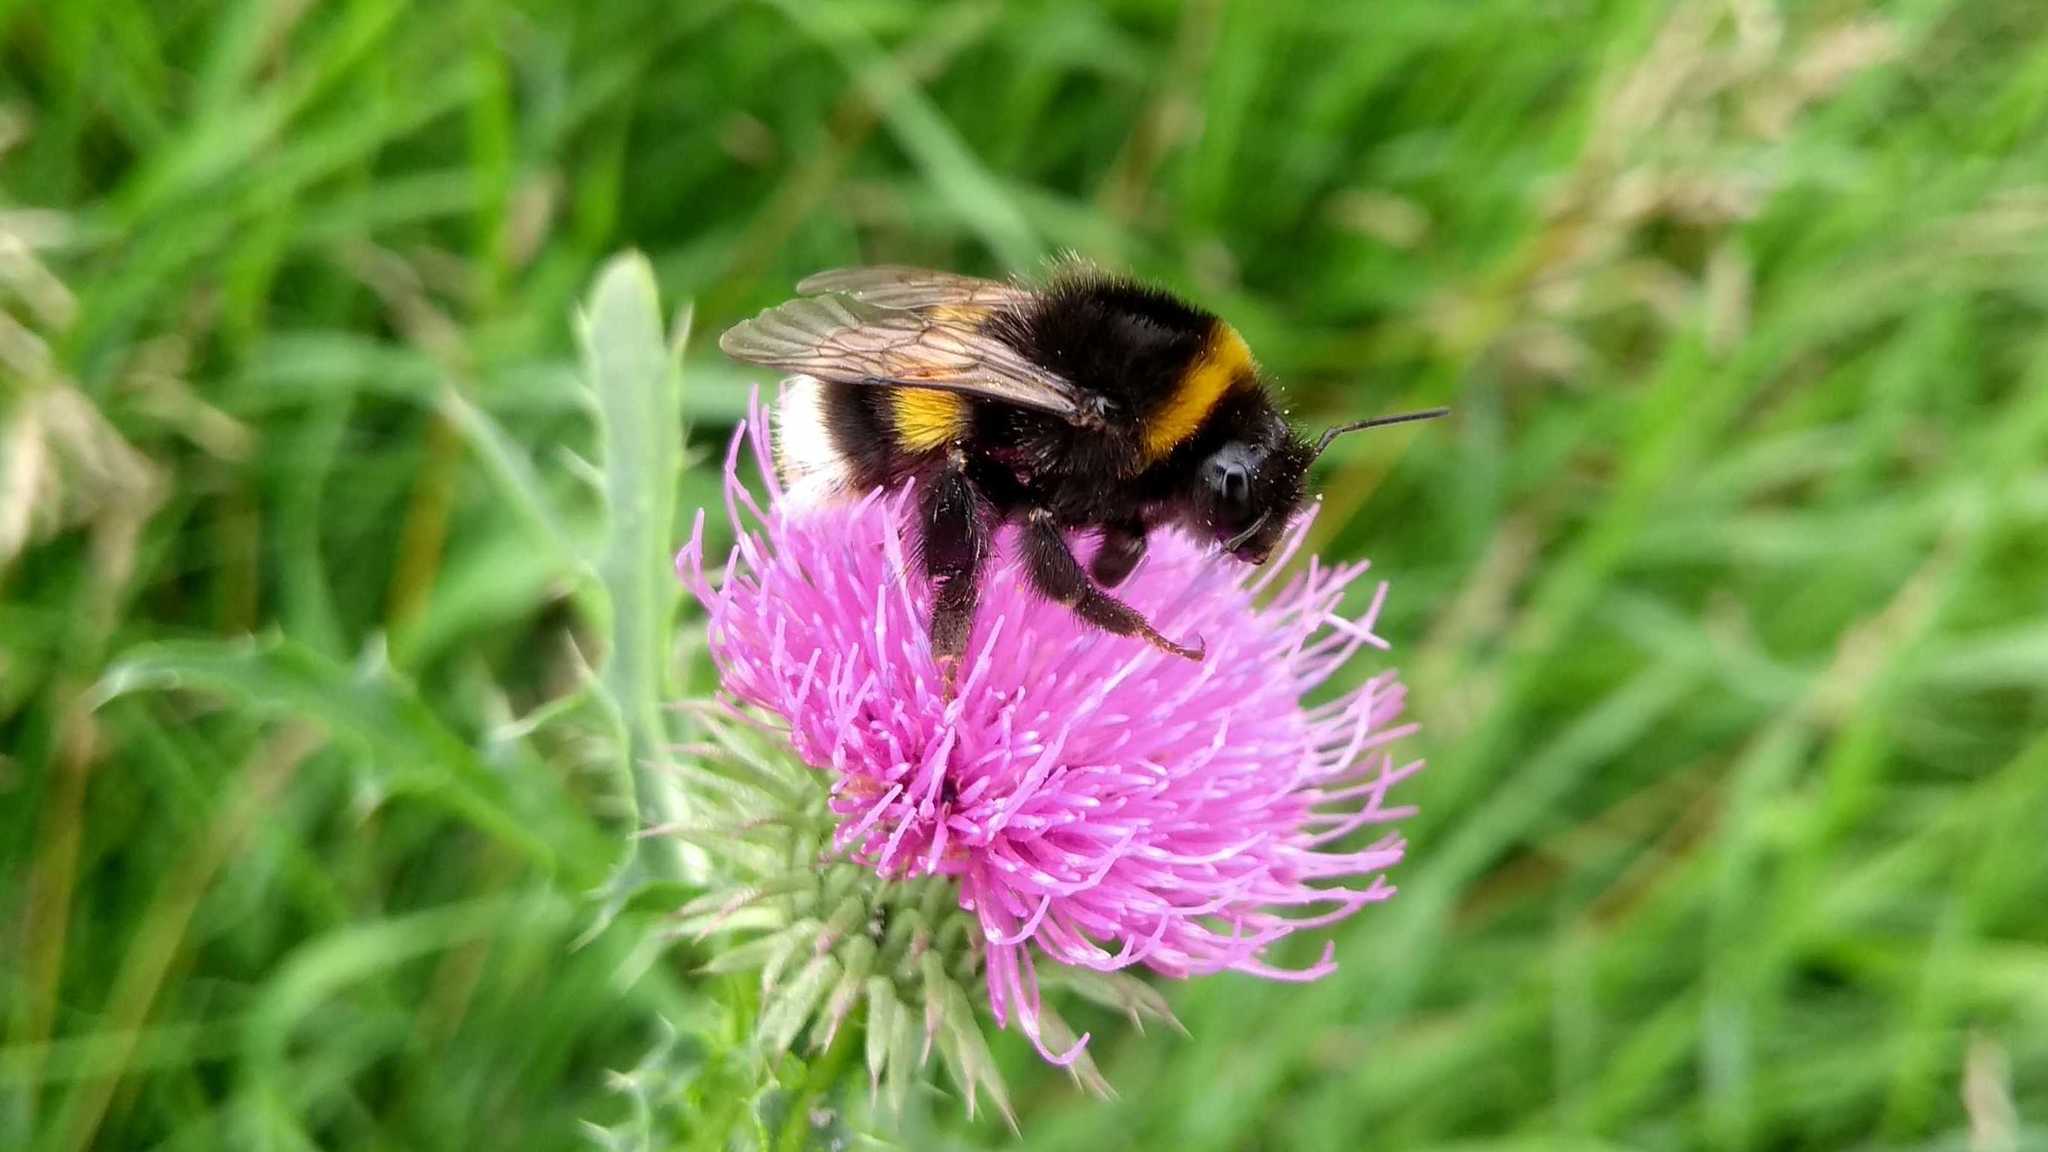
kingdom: Animalia
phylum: Arthropoda
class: Insecta
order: Hymenoptera
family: Apidae
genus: Bombus
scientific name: Bombus
